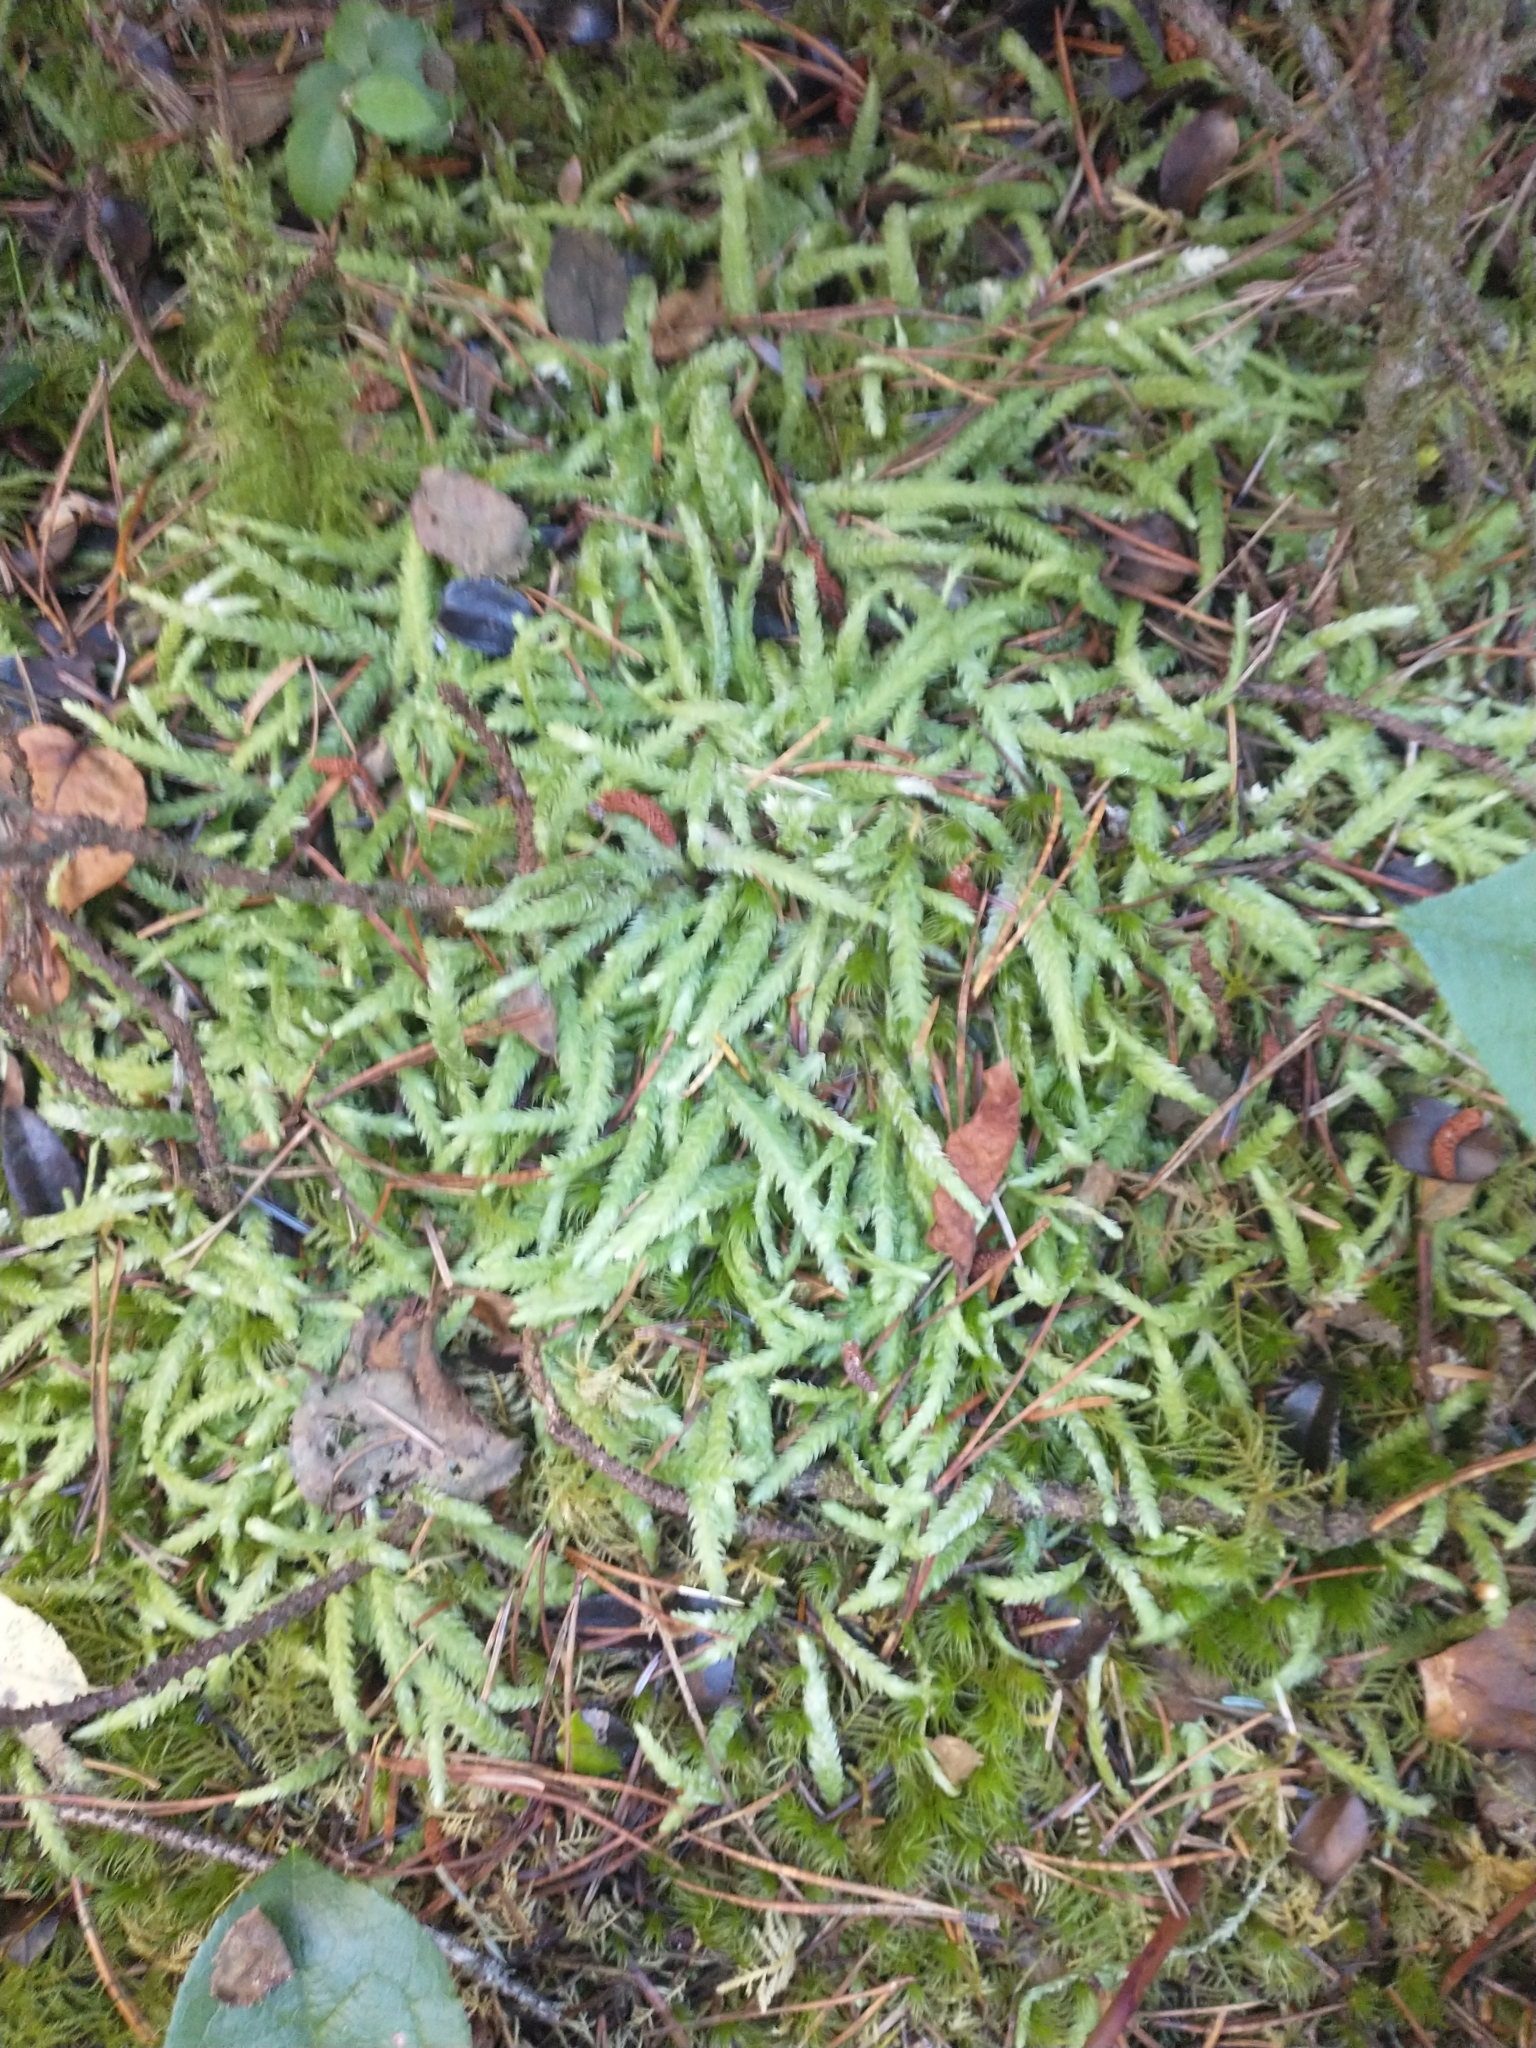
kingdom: Plantae
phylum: Bryophyta
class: Bryopsida
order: Hypnales
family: Plagiotheciaceae
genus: Plagiothecium
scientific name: Plagiothecium undulatum
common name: Waved silk-moss
